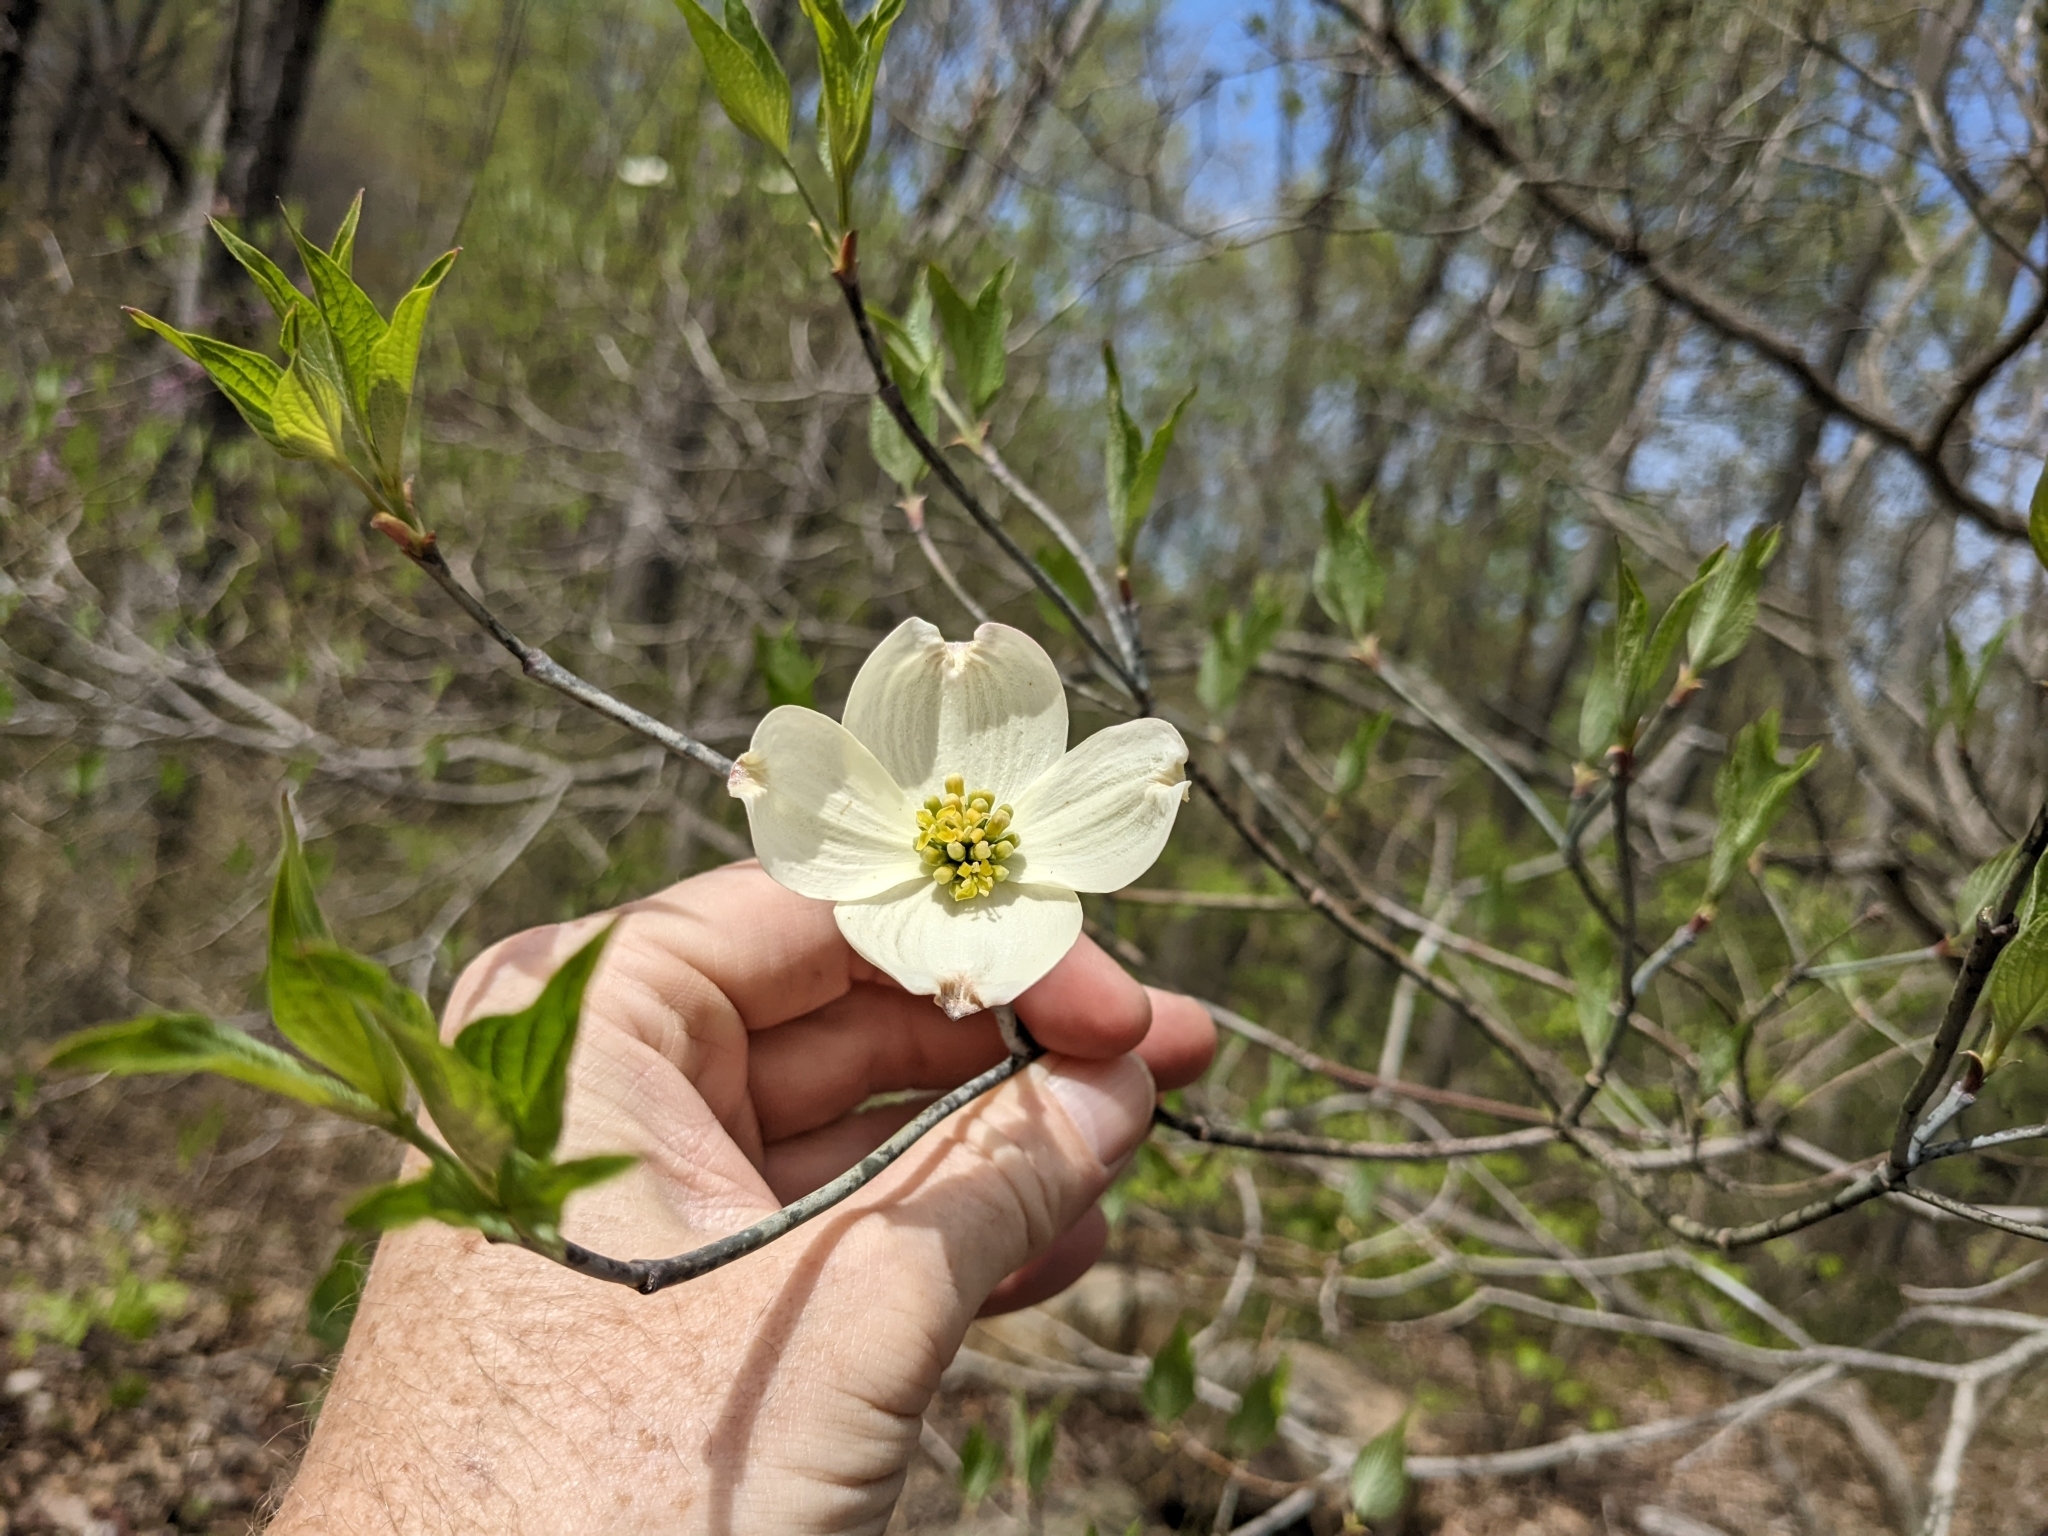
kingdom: Plantae
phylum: Tracheophyta
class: Magnoliopsida
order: Cornales
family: Cornaceae
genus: Cornus
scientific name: Cornus florida
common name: Flowering dogwood
